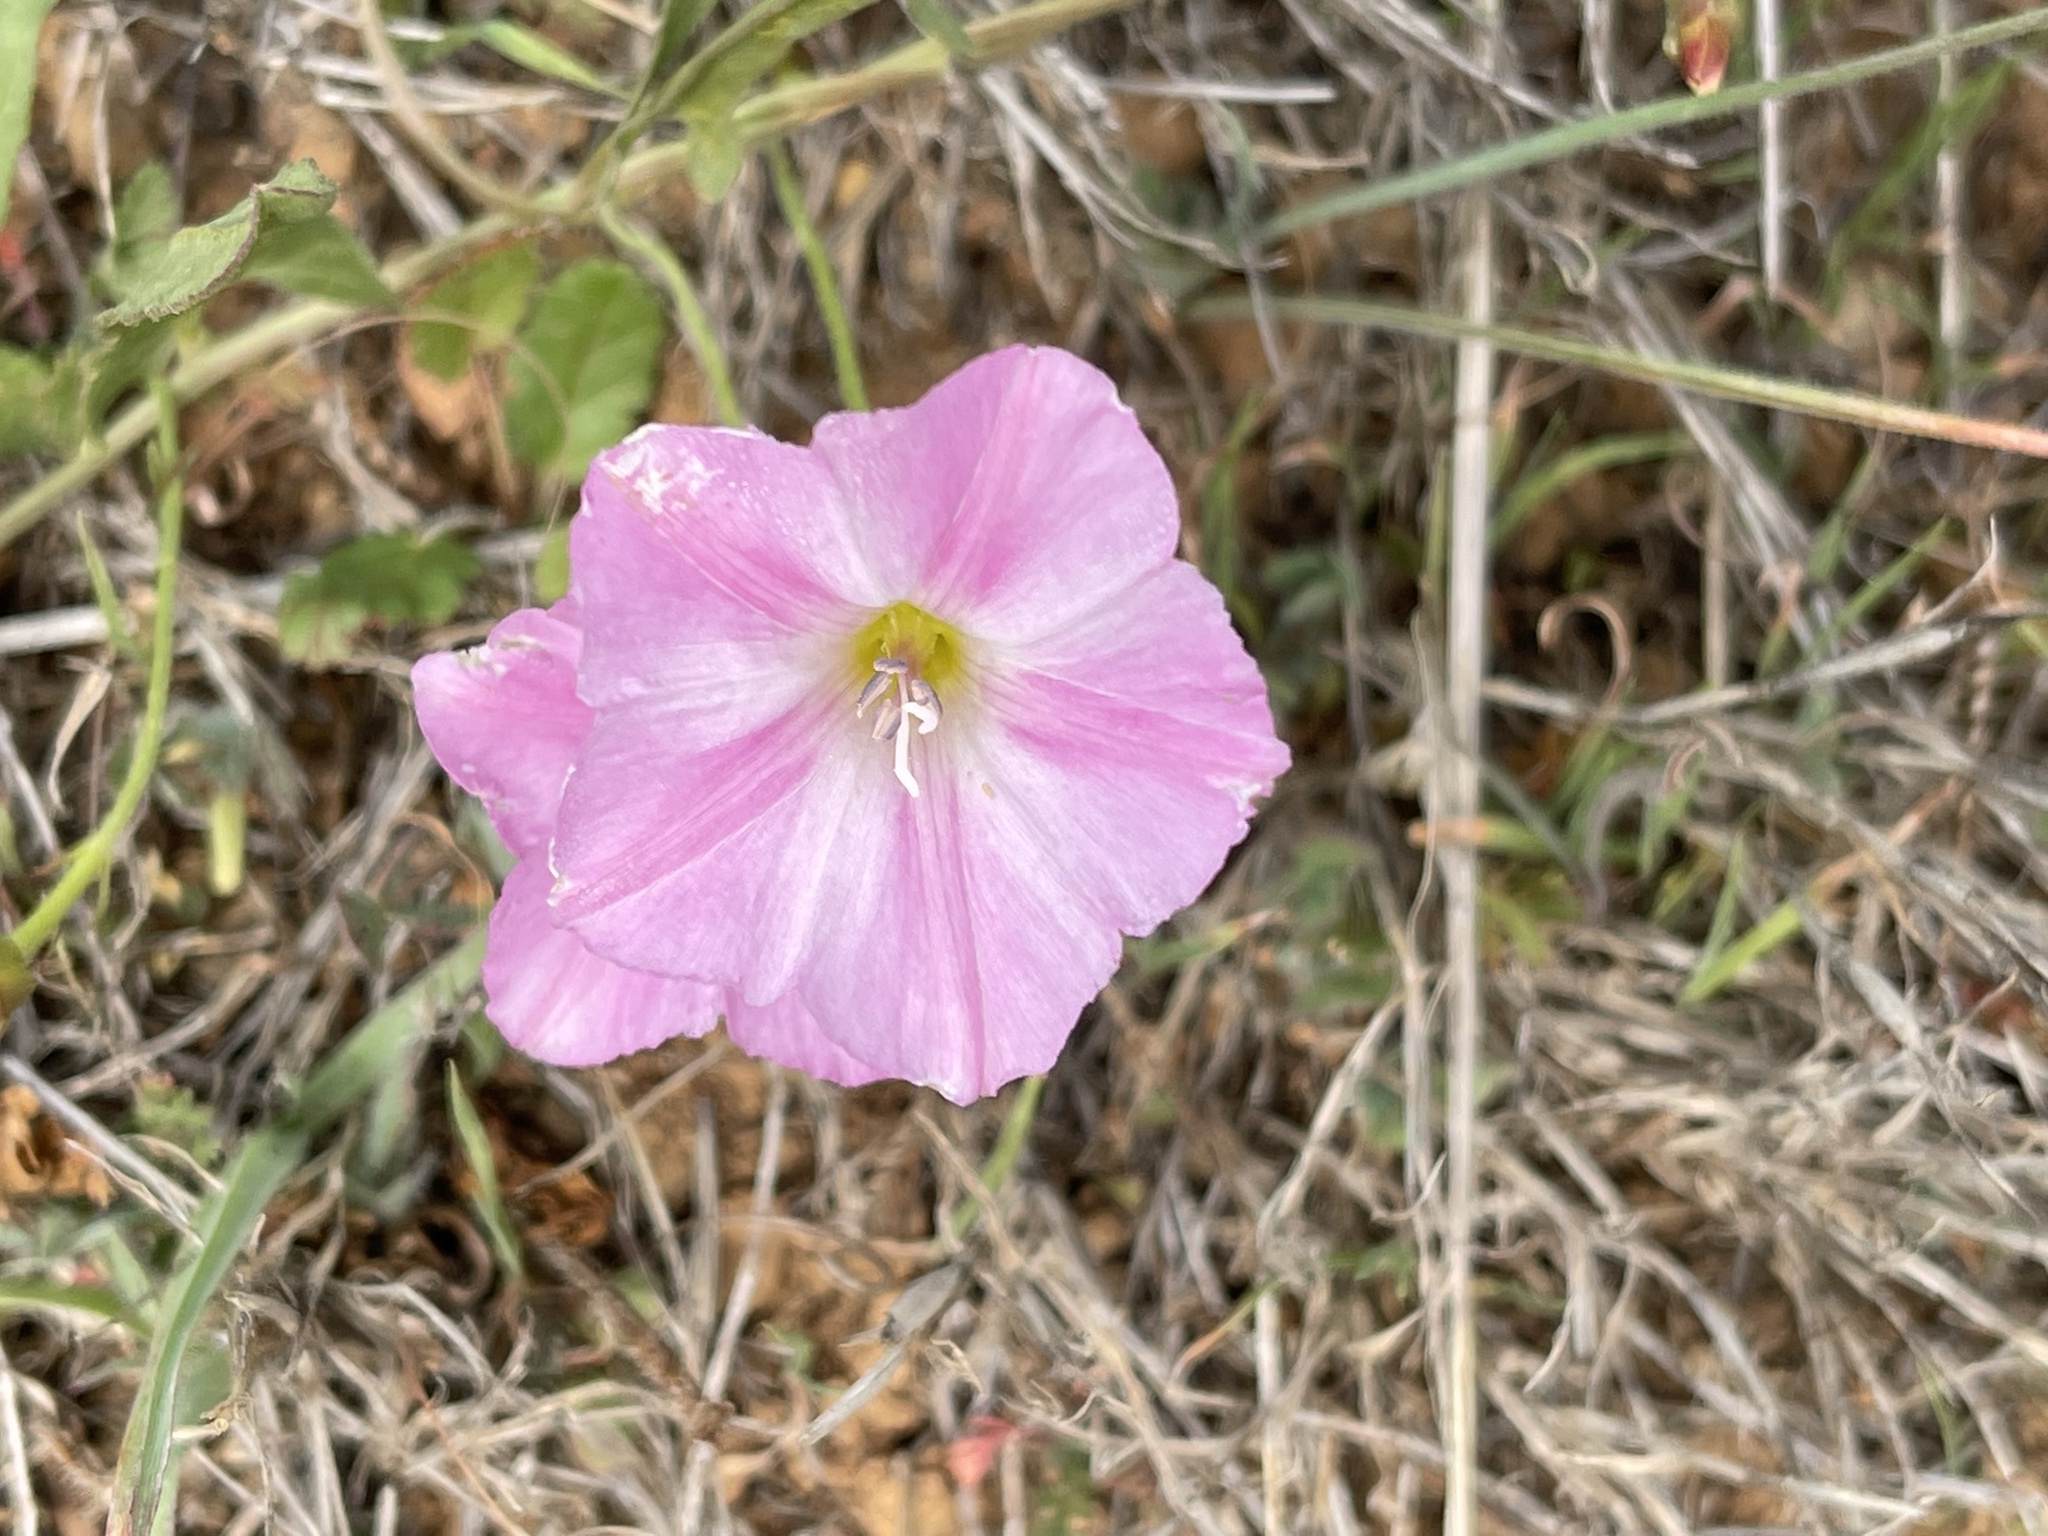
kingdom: Plantae
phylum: Tracheophyta
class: Magnoliopsida
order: Solanales
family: Convolvulaceae
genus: Convolvulus
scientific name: Convolvulus arvensis
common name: Field bindweed
